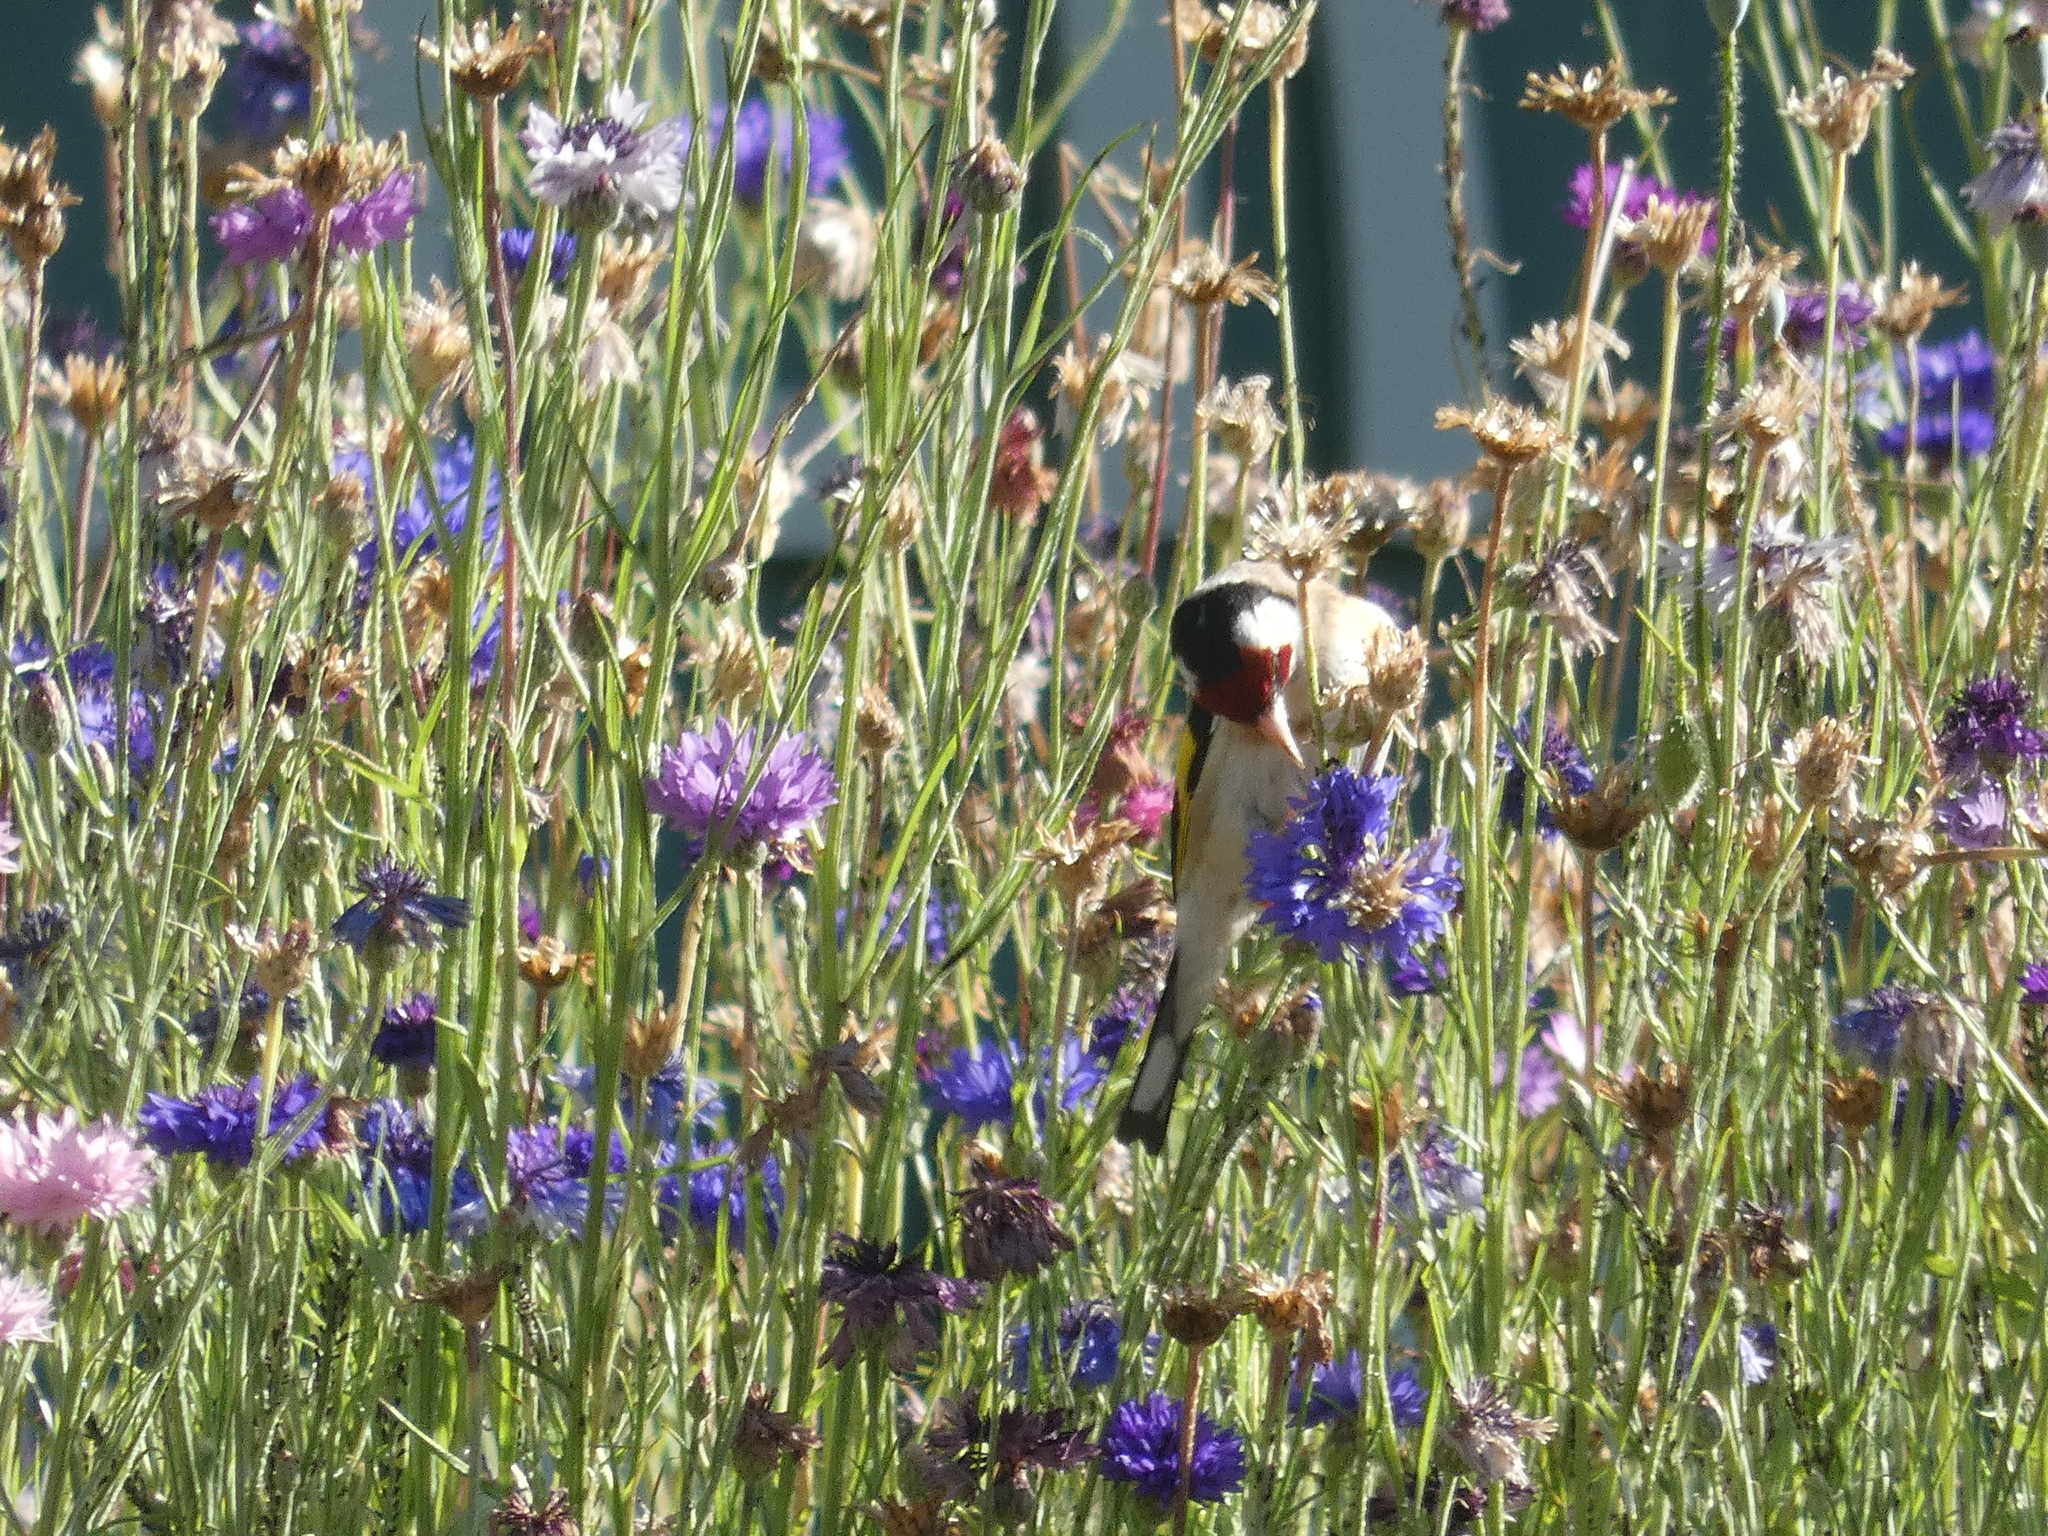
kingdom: Animalia
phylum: Chordata
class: Aves
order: Passeriformes
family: Fringillidae
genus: Carduelis
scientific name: Carduelis carduelis
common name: European goldfinch
